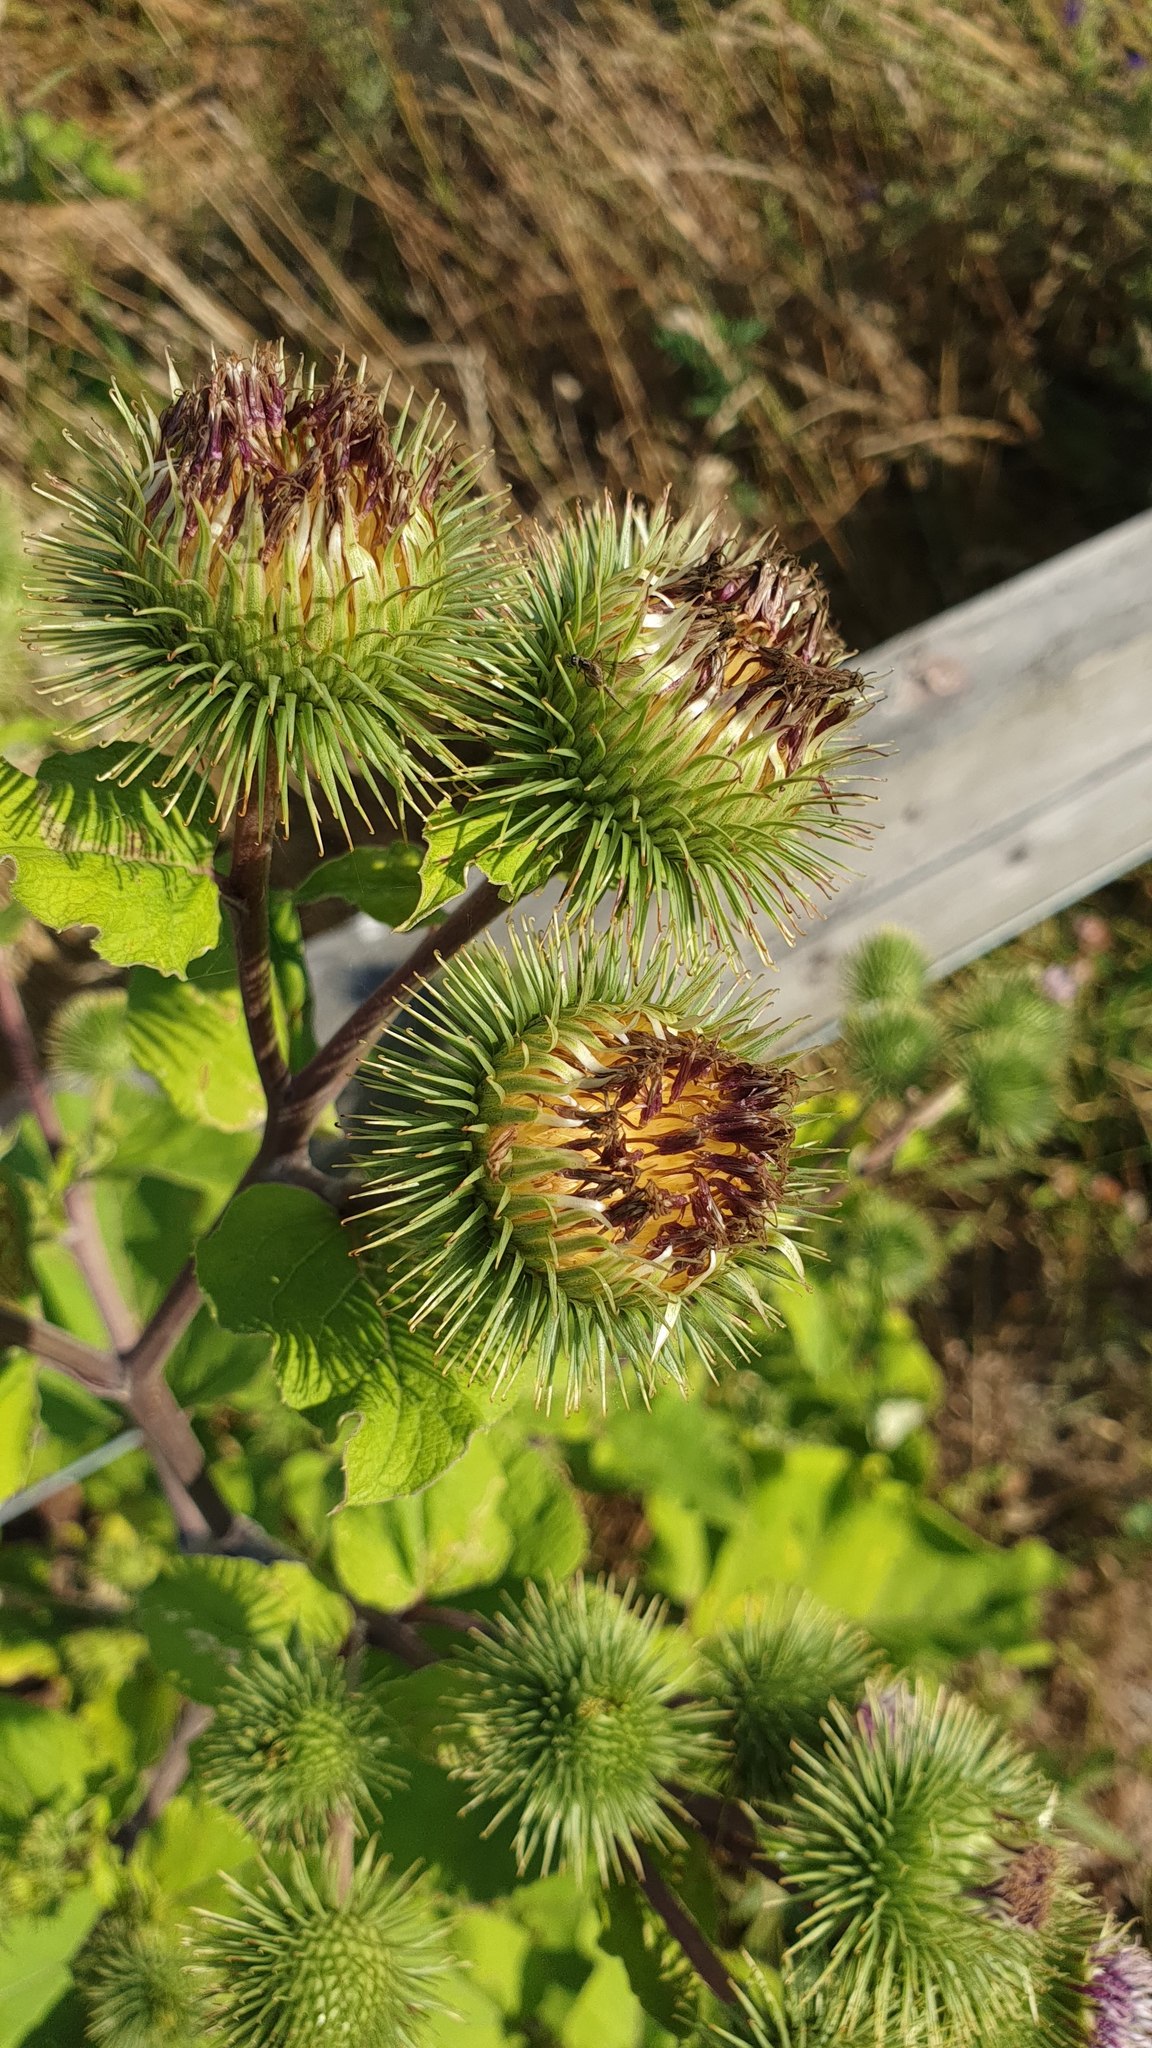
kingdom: Plantae
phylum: Tracheophyta
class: Magnoliopsida
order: Asterales
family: Asteraceae
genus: Arctium
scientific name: Arctium lappa
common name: Greater burdock
